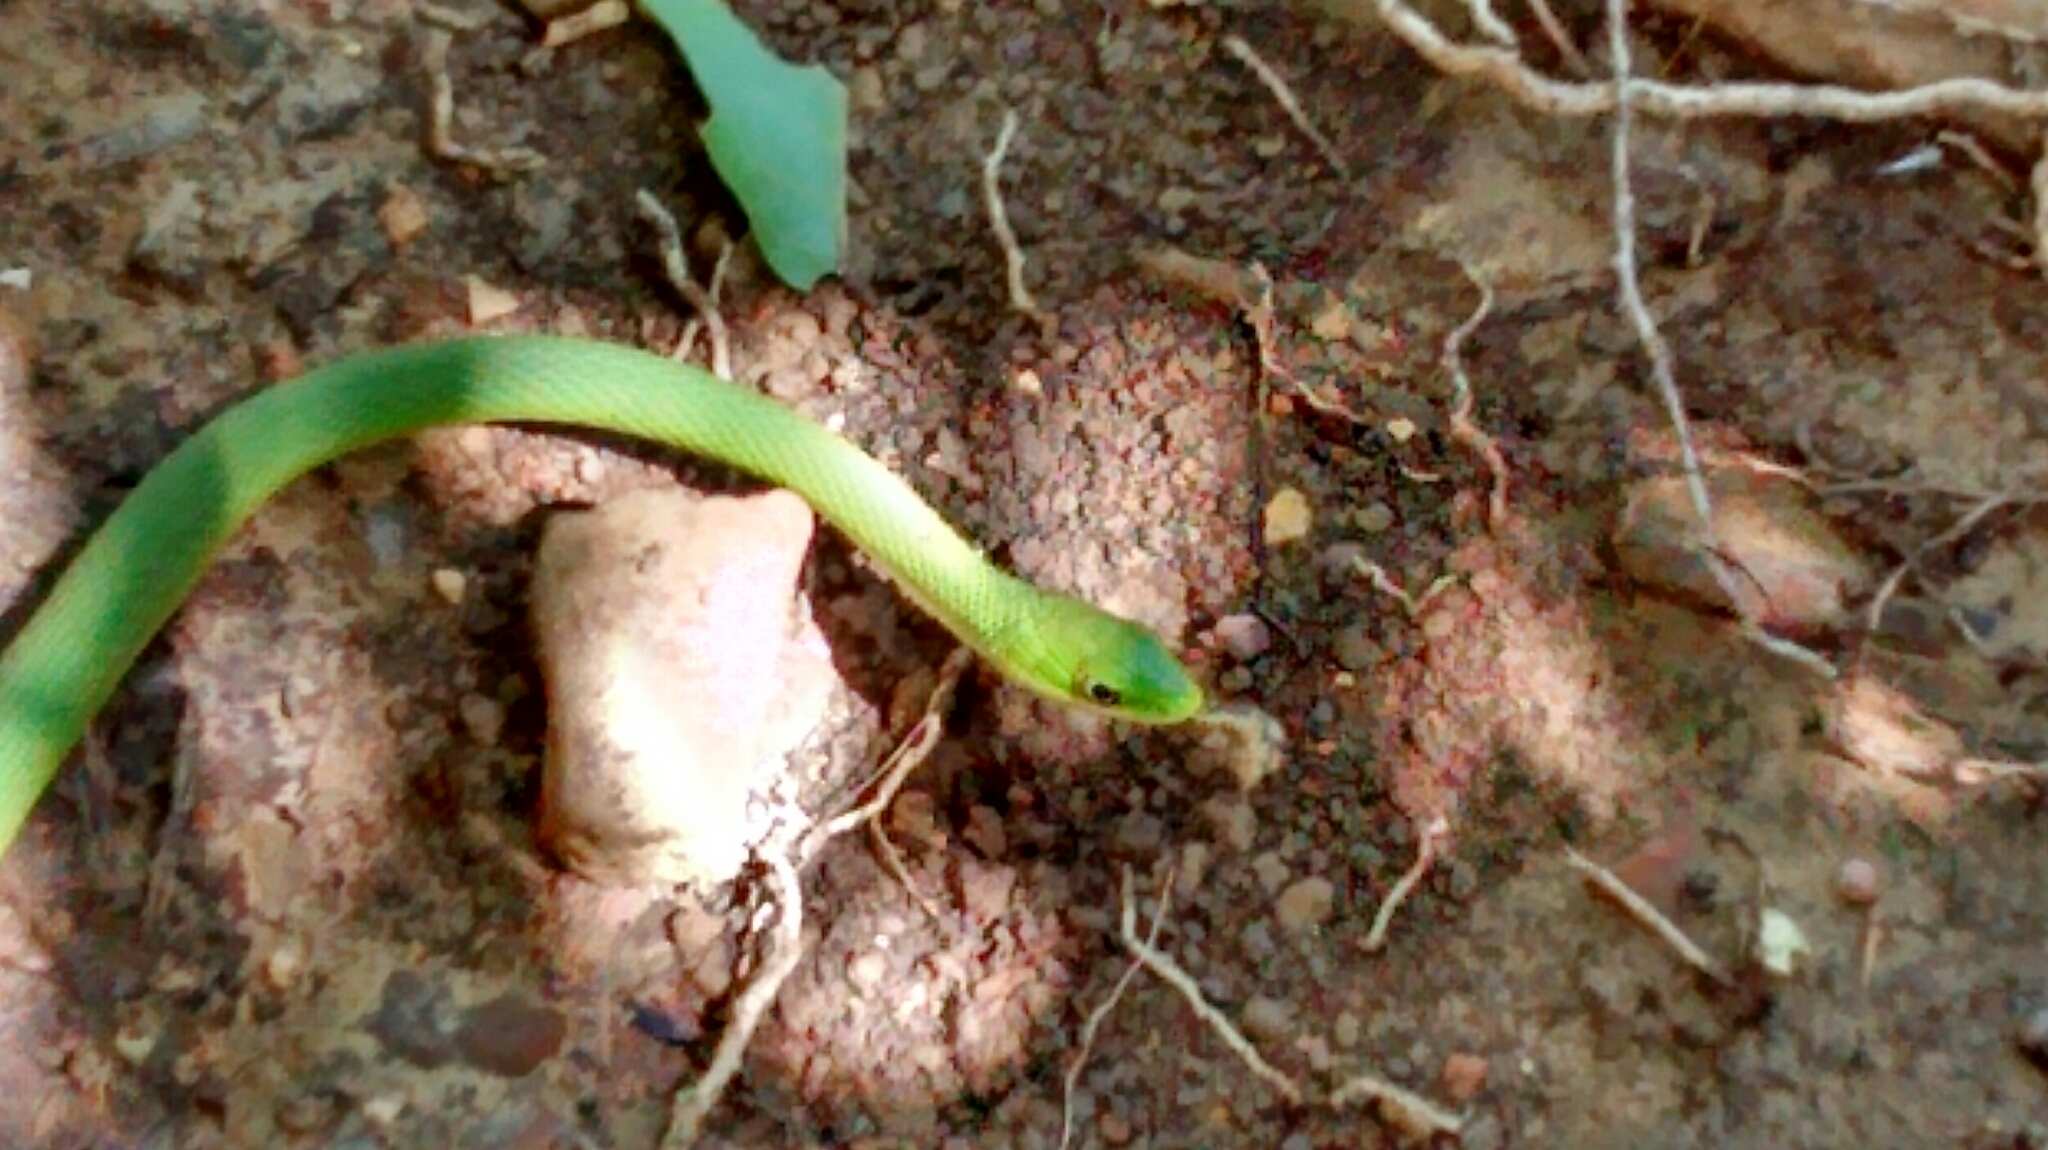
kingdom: Animalia
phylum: Chordata
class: Squamata
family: Colubridae
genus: Opheodrys
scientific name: Opheodrys aestivus
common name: Rough greensnake
